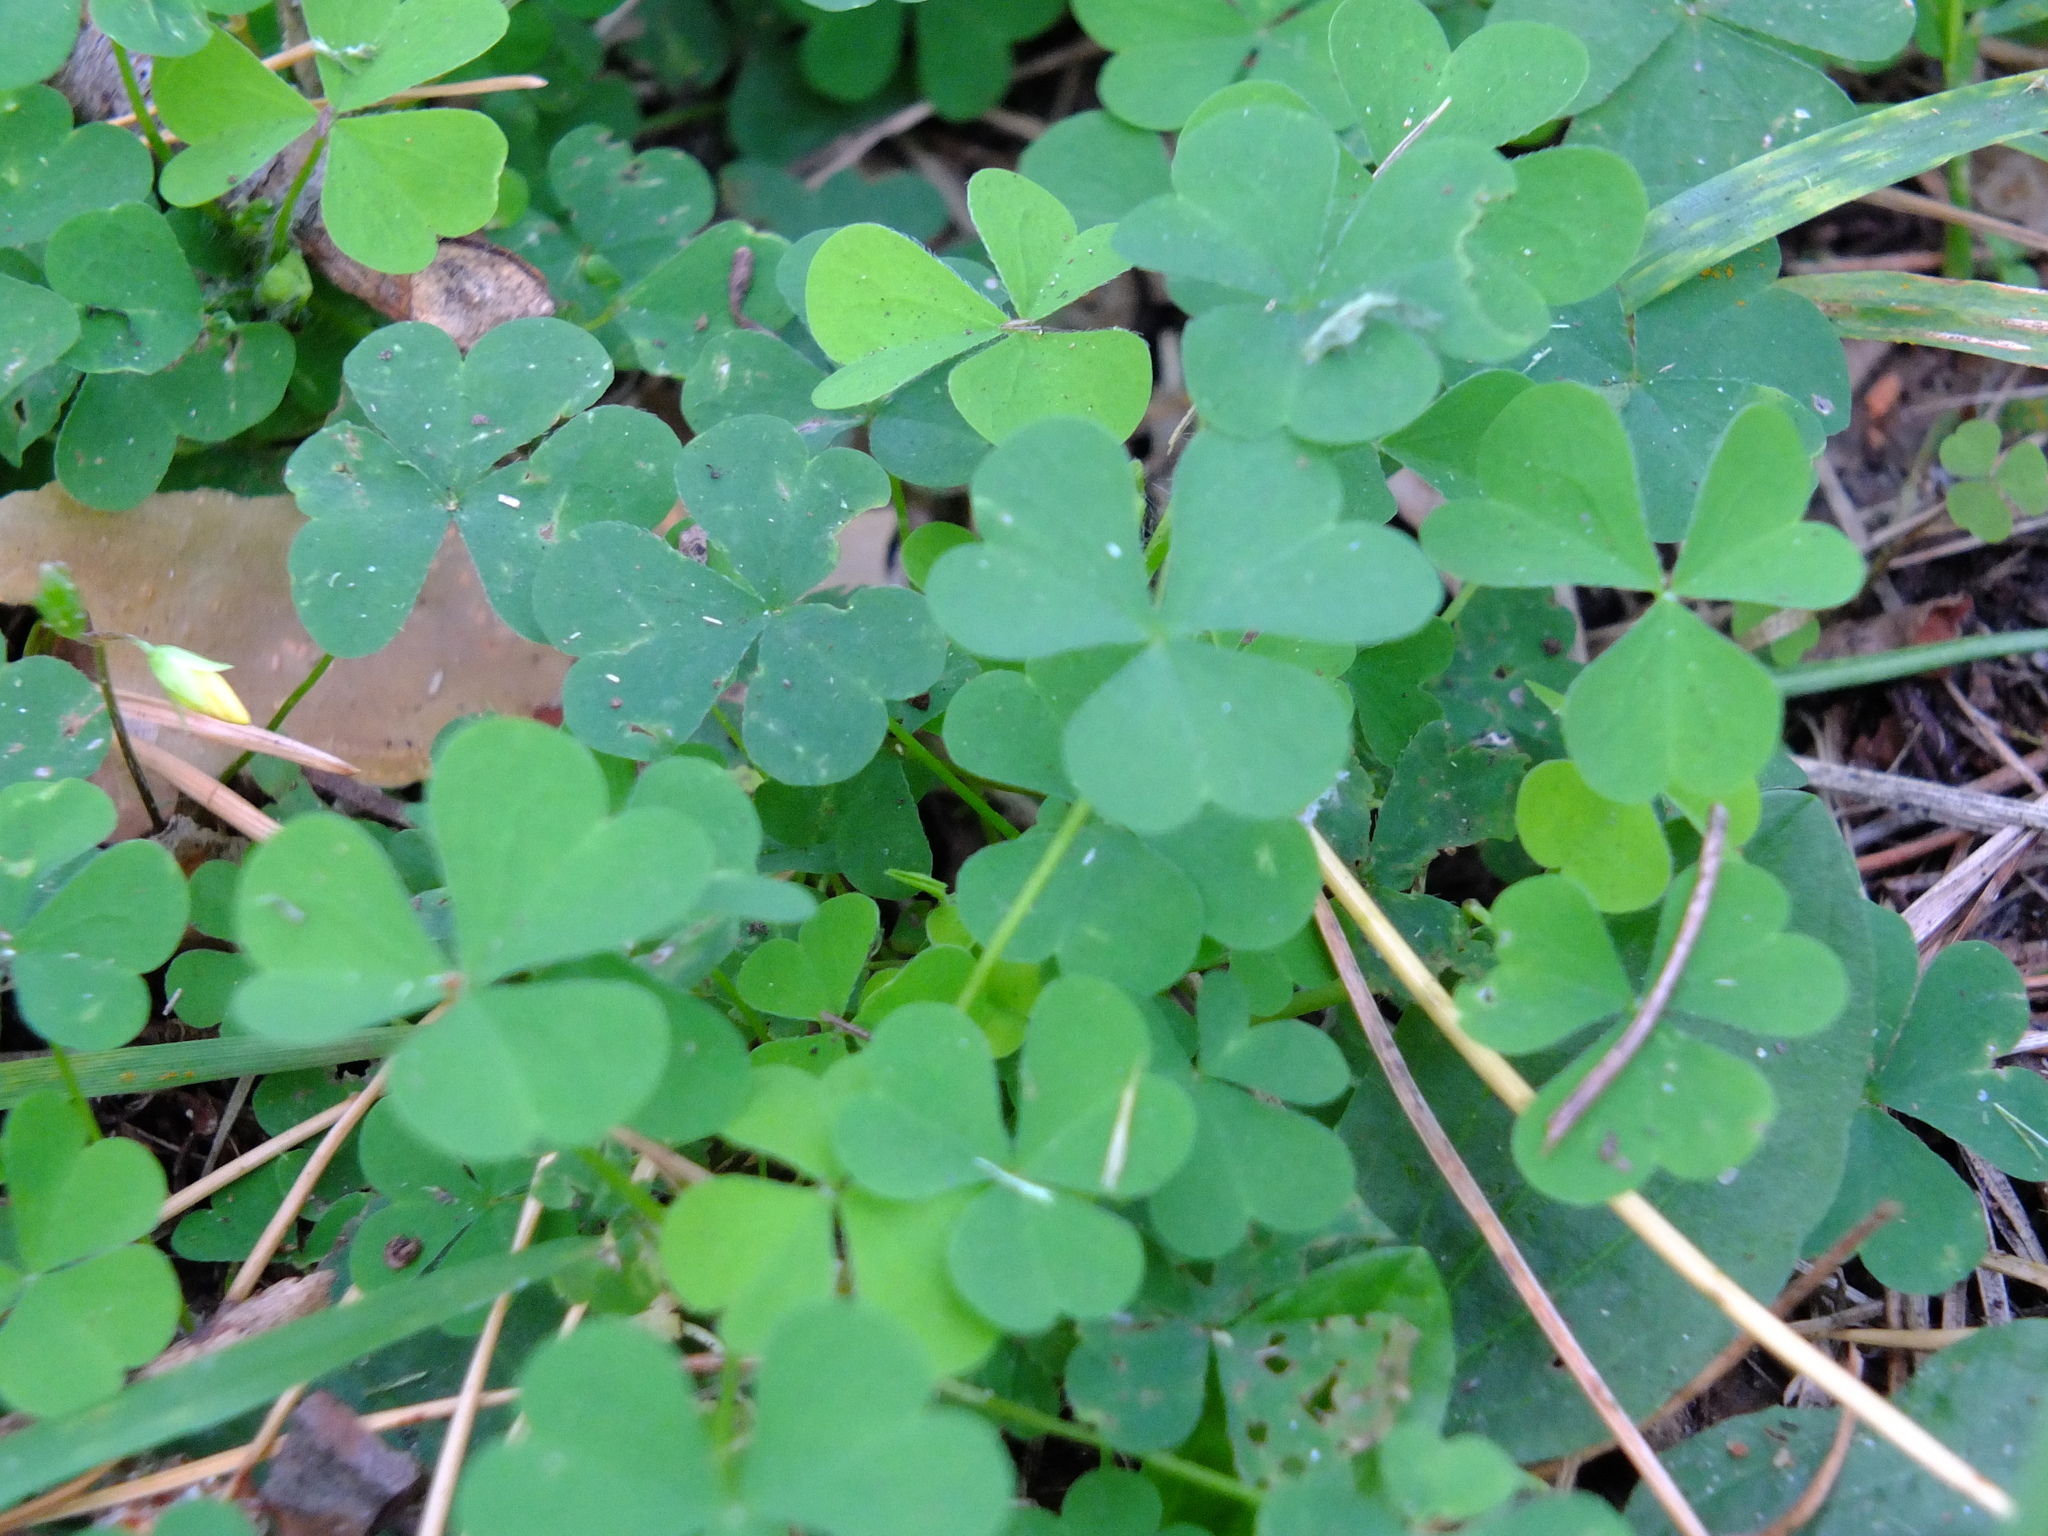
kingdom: Plantae
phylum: Tracheophyta
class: Magnoliopsida
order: Oxalidales
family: Oxalidaceae
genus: Oxalis
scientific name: Oxalis acetosella
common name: Wood-sorrel
